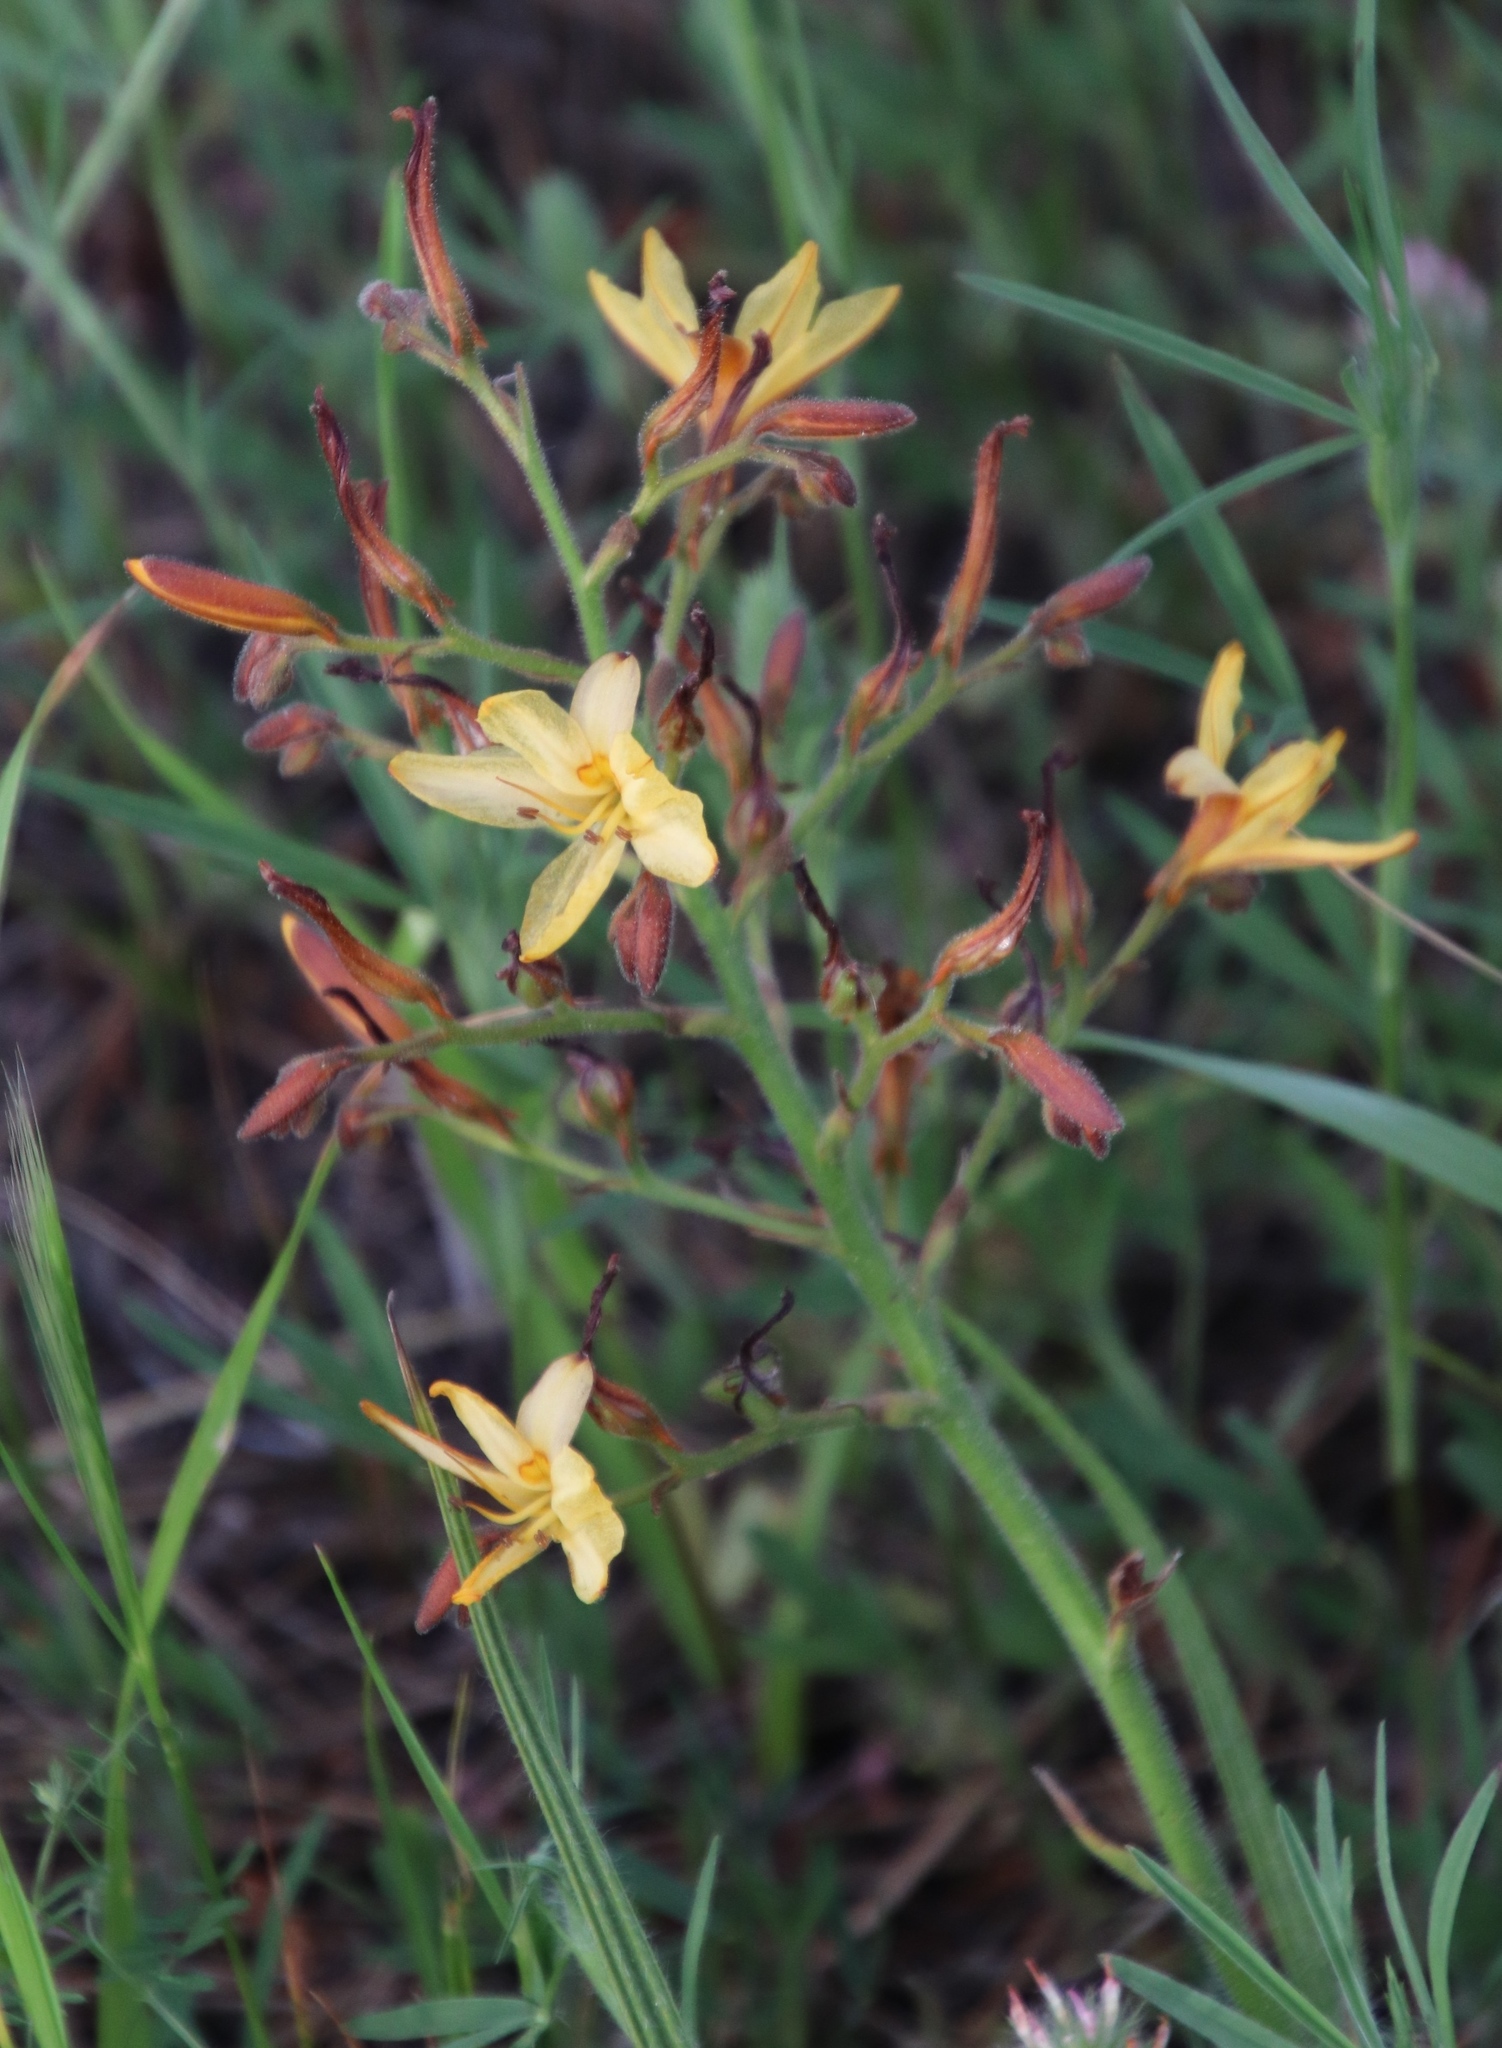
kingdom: Plantae
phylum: Tracheophyta
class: Liliopsida
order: Commelinales
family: Haemodoraceae
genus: Wachendorfia
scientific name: Wachendorfia paniculata
